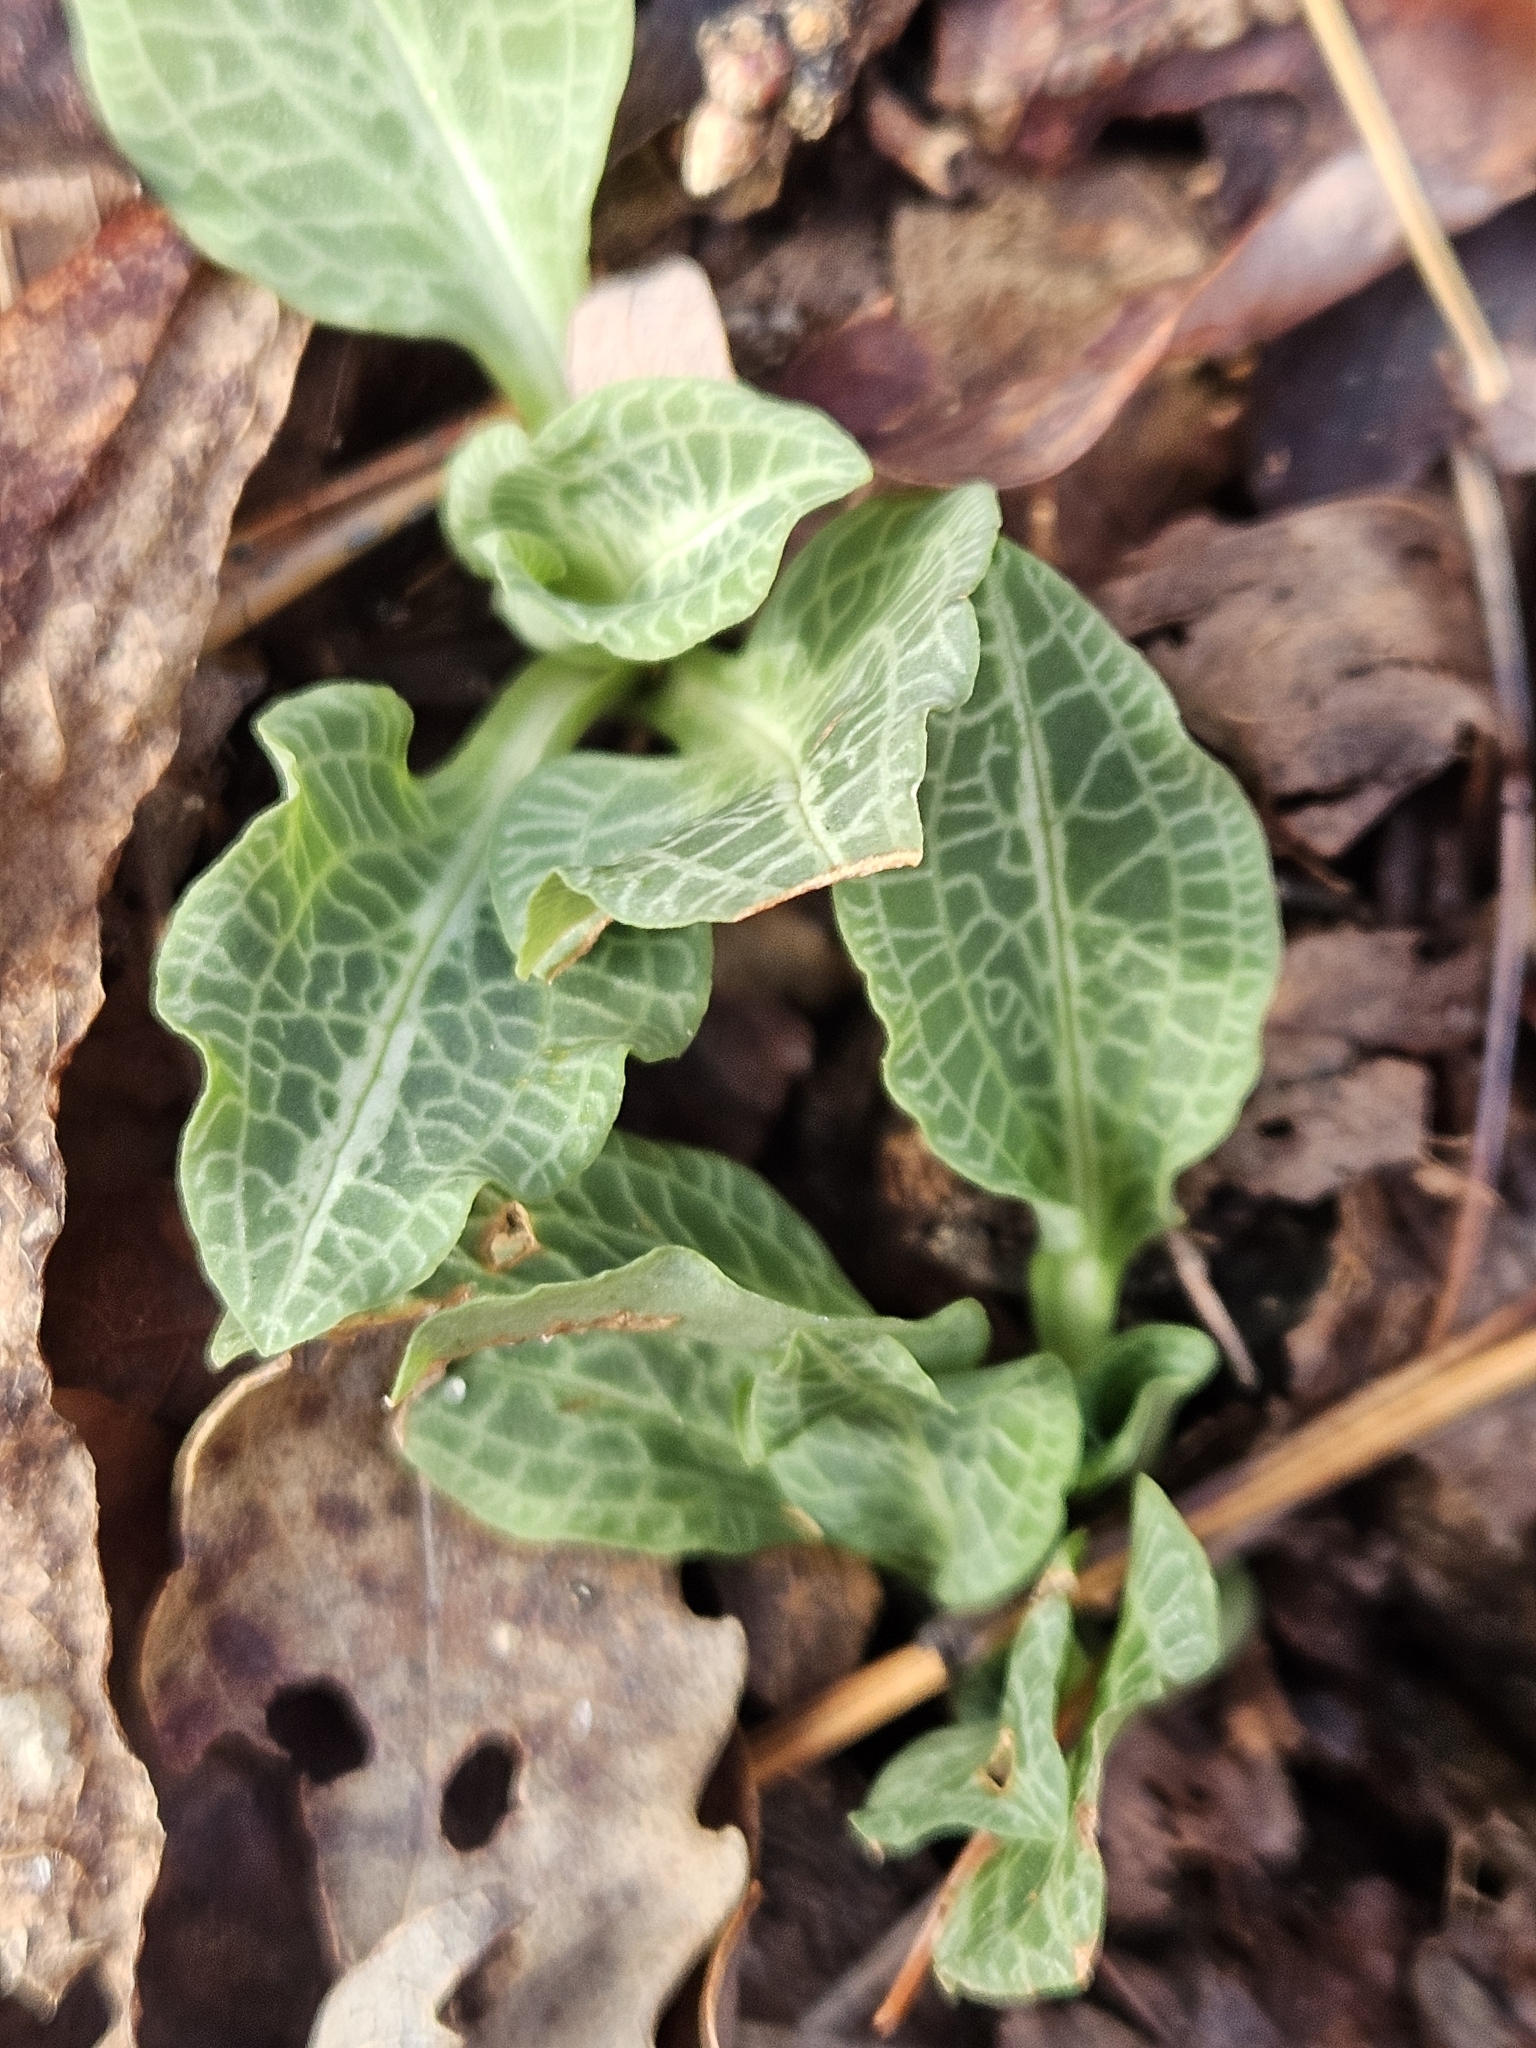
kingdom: Plantae
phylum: Tracheophyta
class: Liliopsida
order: Asparagales
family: Orchidaceae
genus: Goodyera
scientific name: Goodyera pubescens
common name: Downy rattlesnake-plantain
